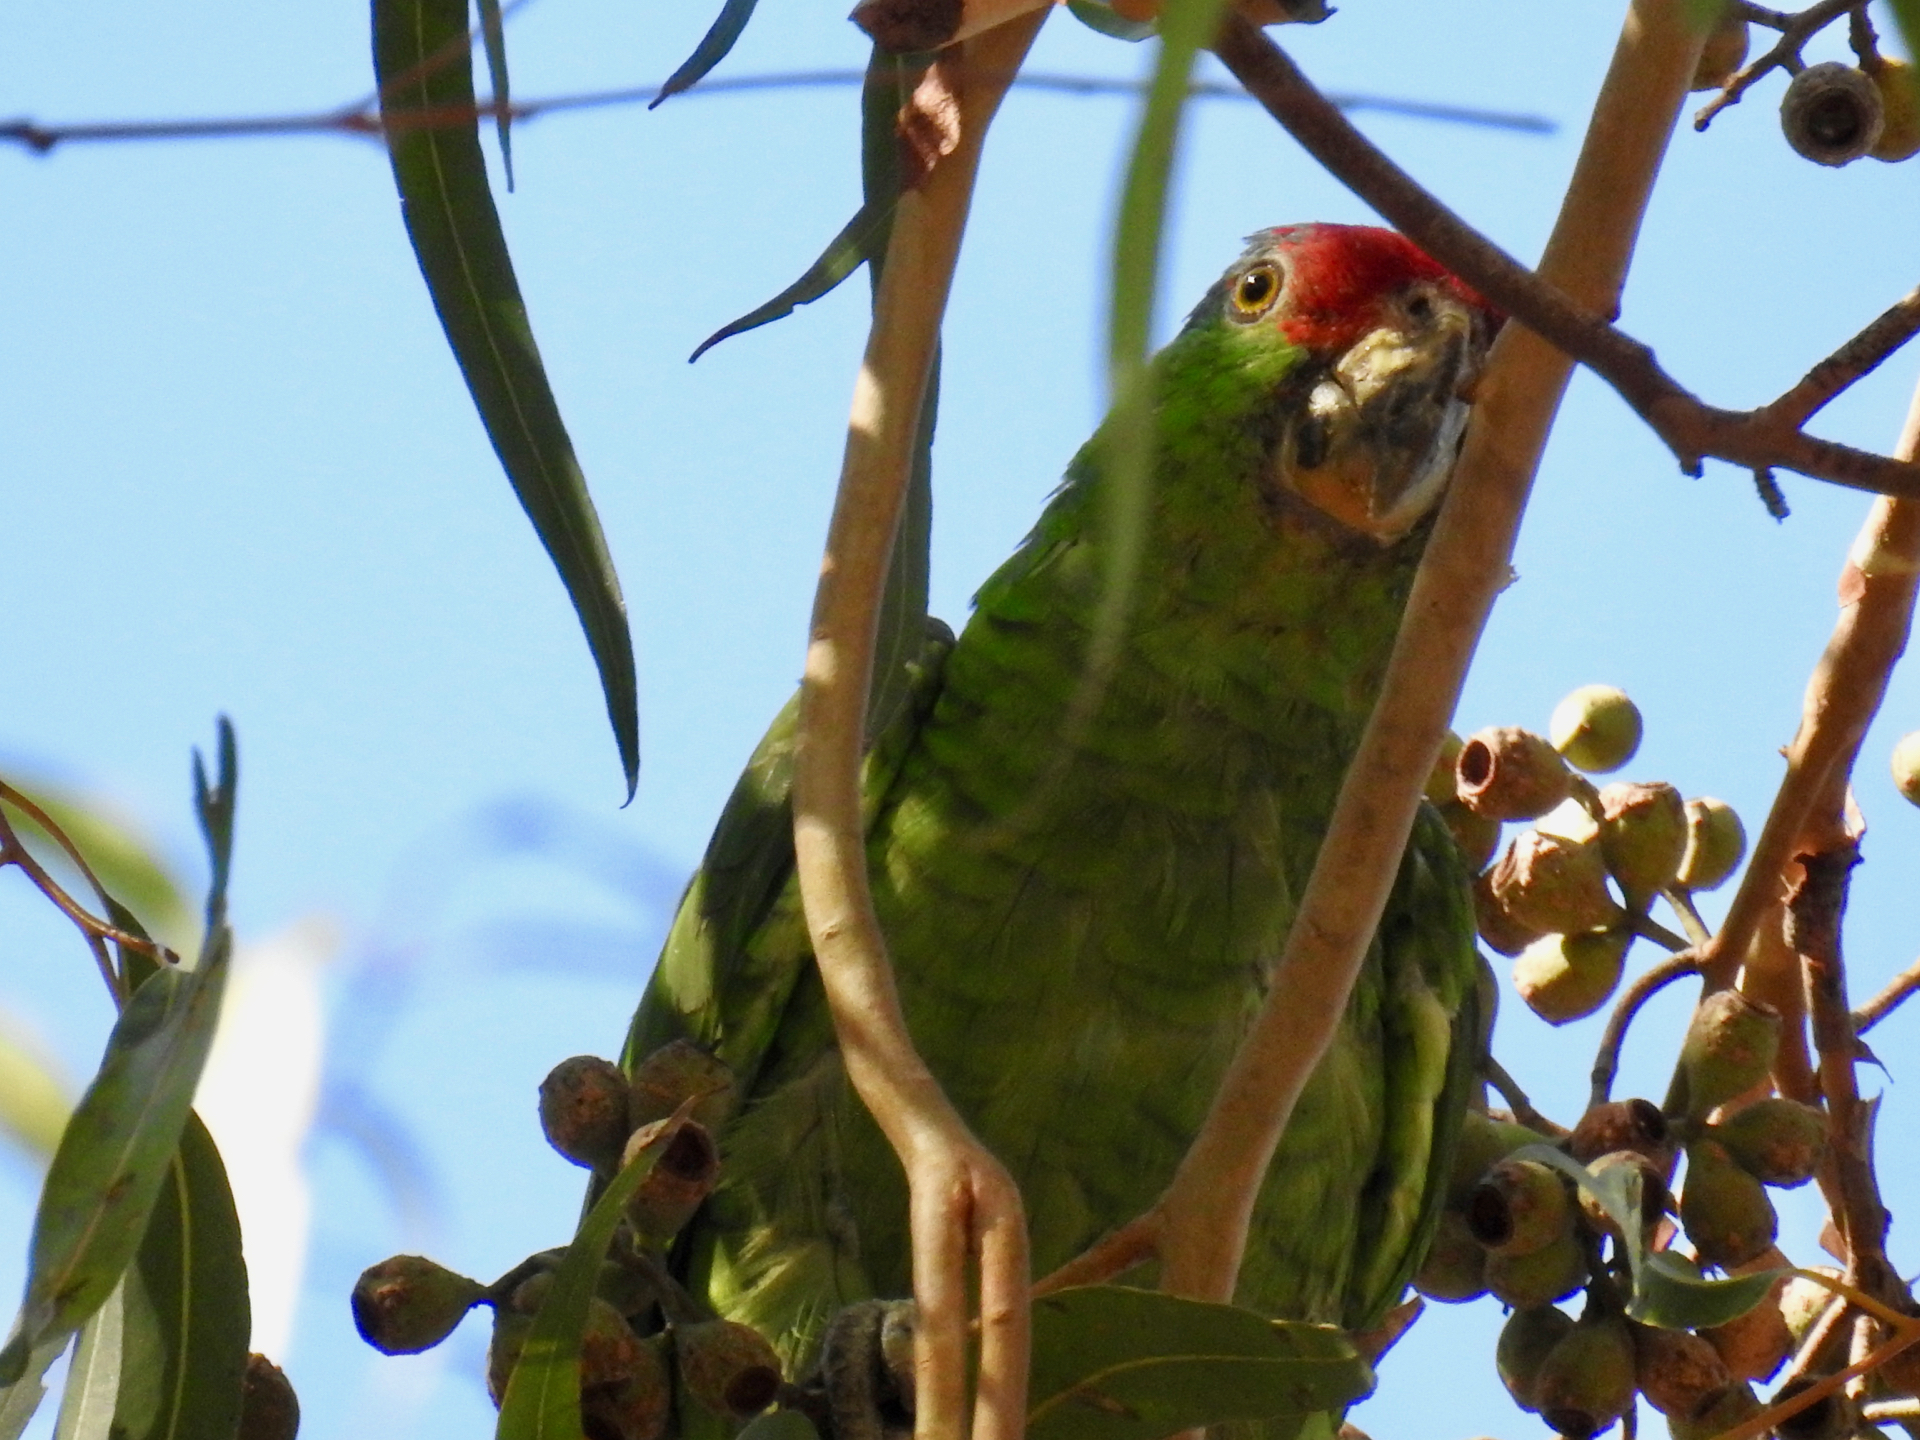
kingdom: Animalia
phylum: Chordata
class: Aves
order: Psittaciformes
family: Psittacidae
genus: Amazona
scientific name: Amazona viridigenalis
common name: Red-crowned amazon
